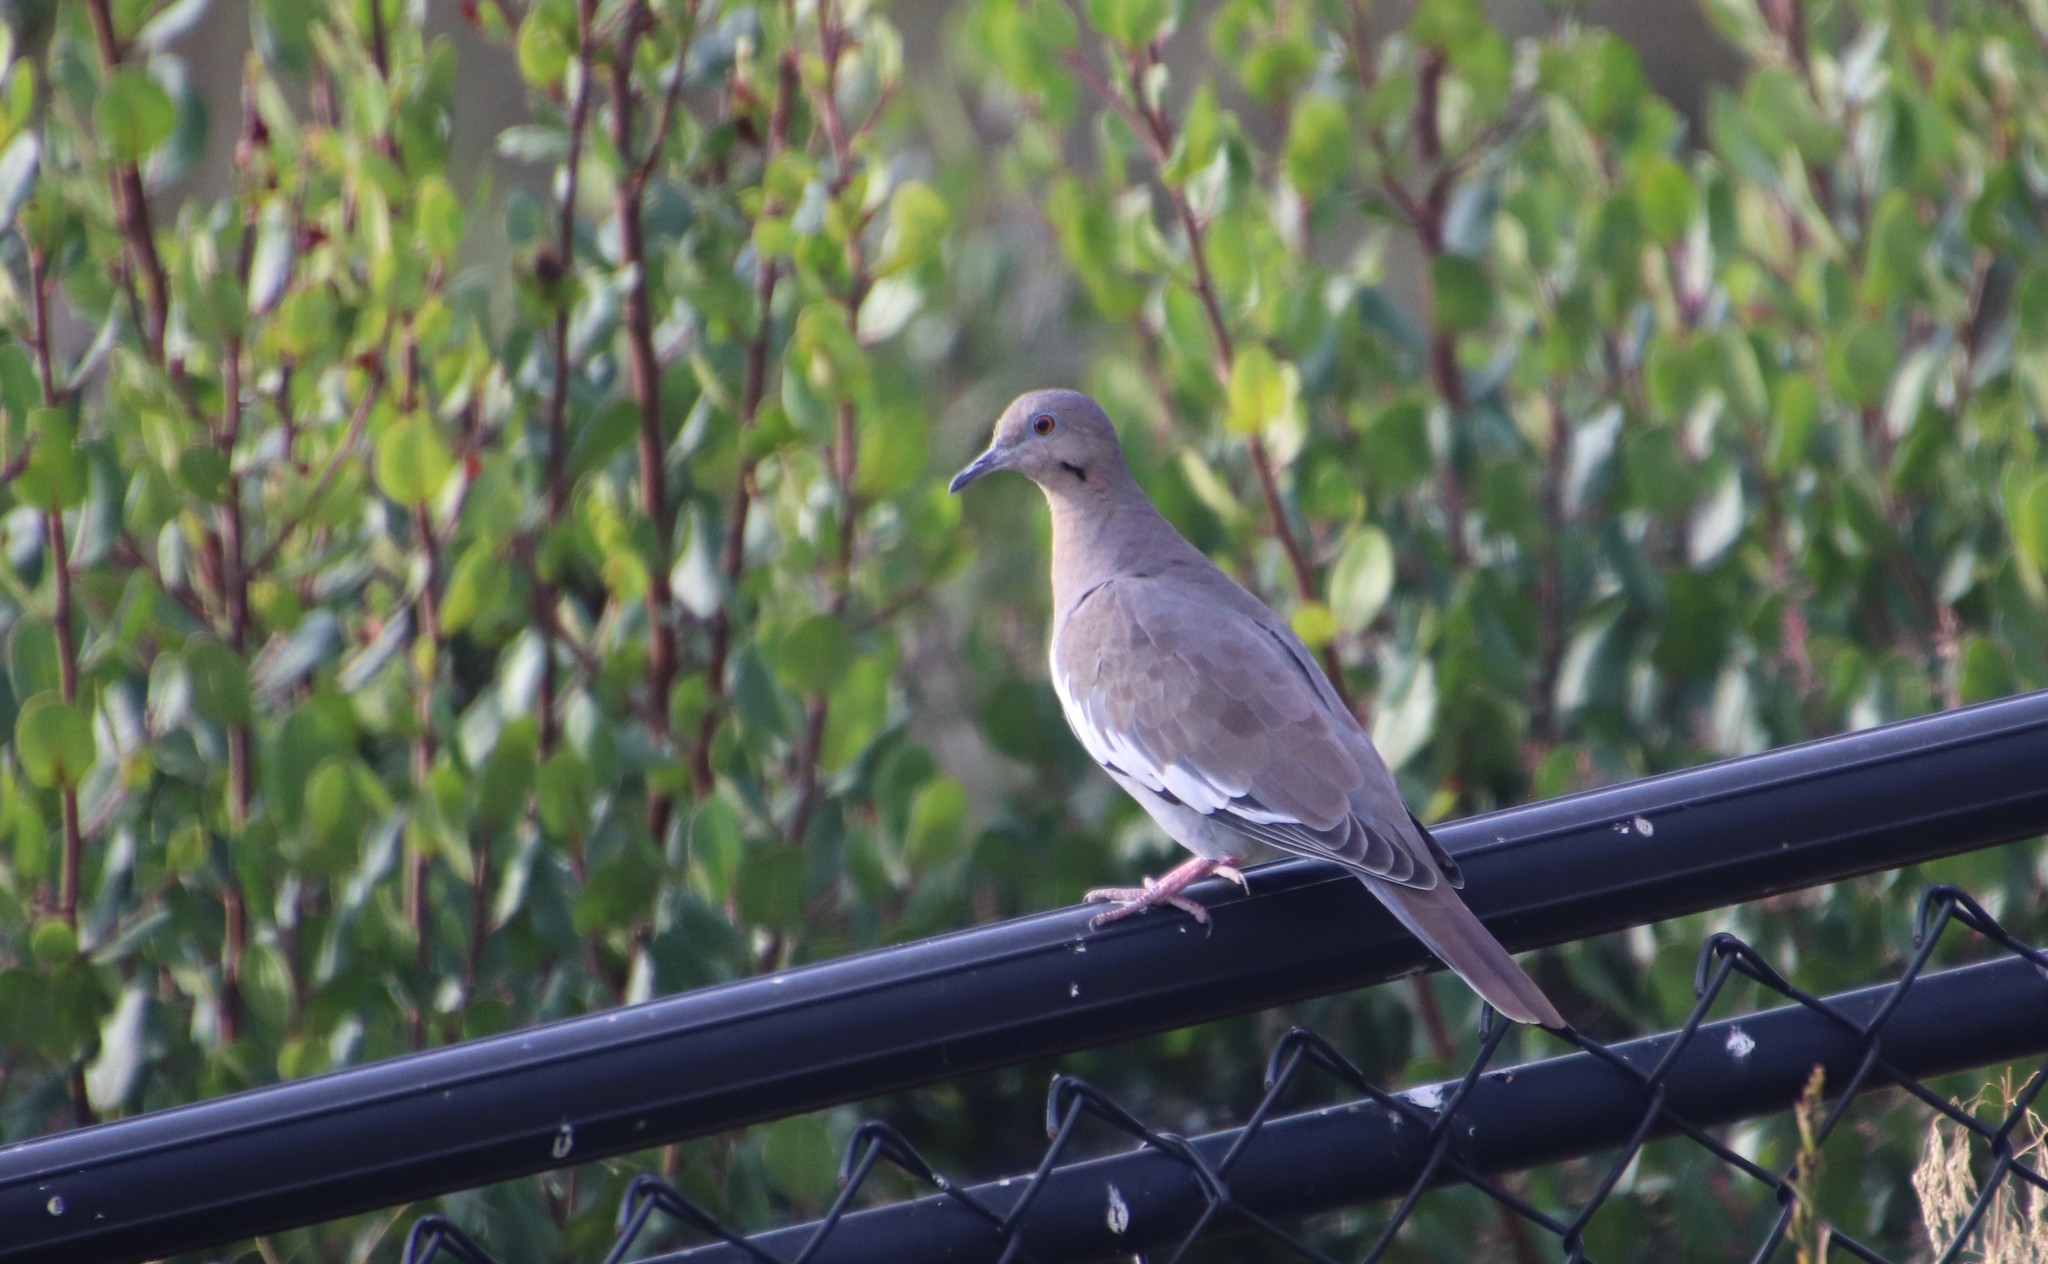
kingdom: Animalia
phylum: Chordata
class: Aves
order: Columbiformes
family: Columbidae
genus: Zenaida
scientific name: Zenaida asiatica
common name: White-winged dove
